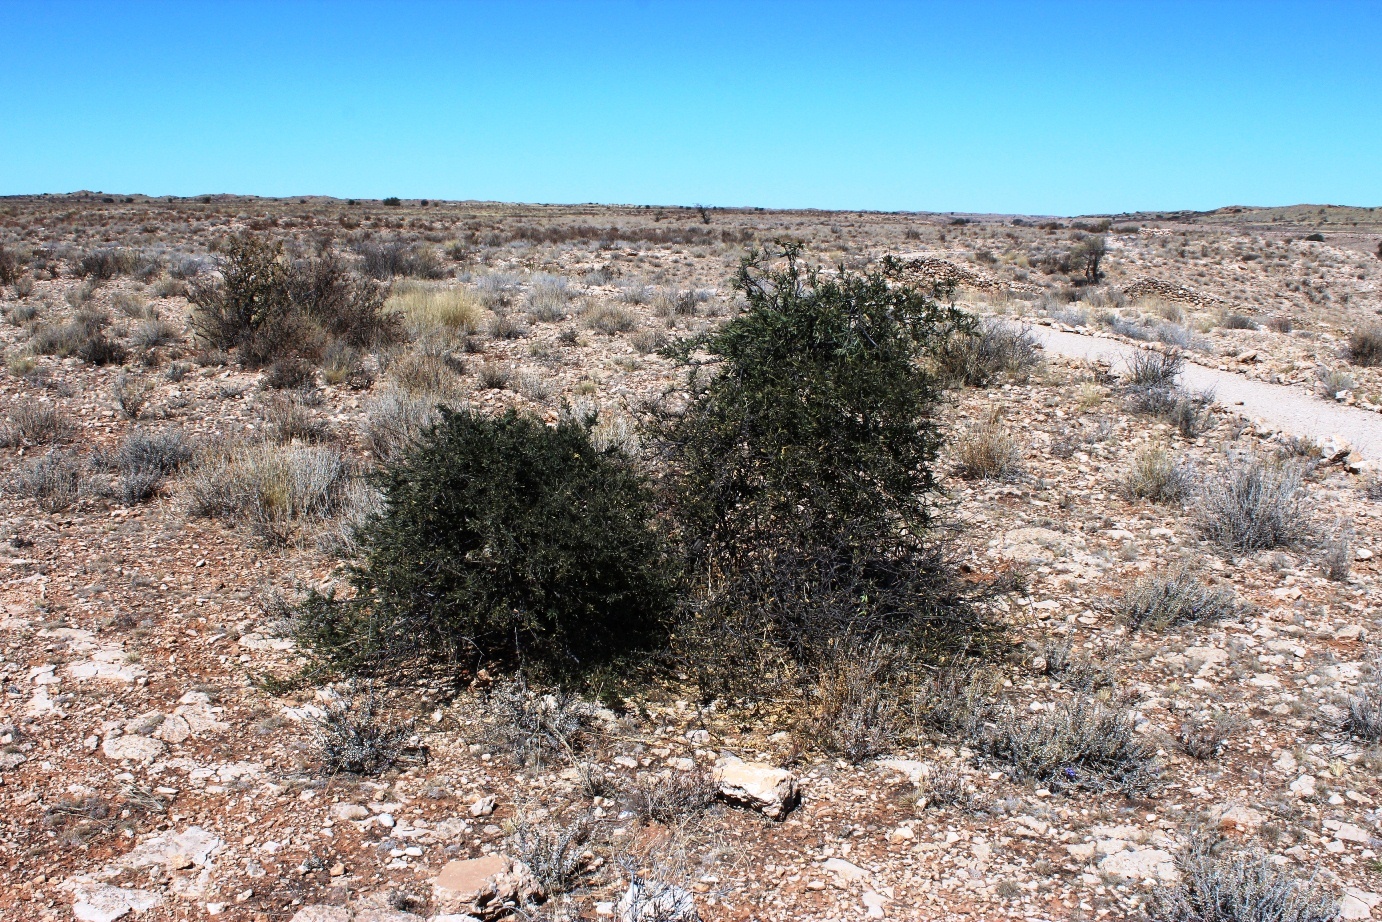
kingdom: Plantae
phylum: Tracheophyta
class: Magnoliopsida
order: Brassicales
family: Capparaceae
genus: Boscia
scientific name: Boscia albitrunca
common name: Caper bush
